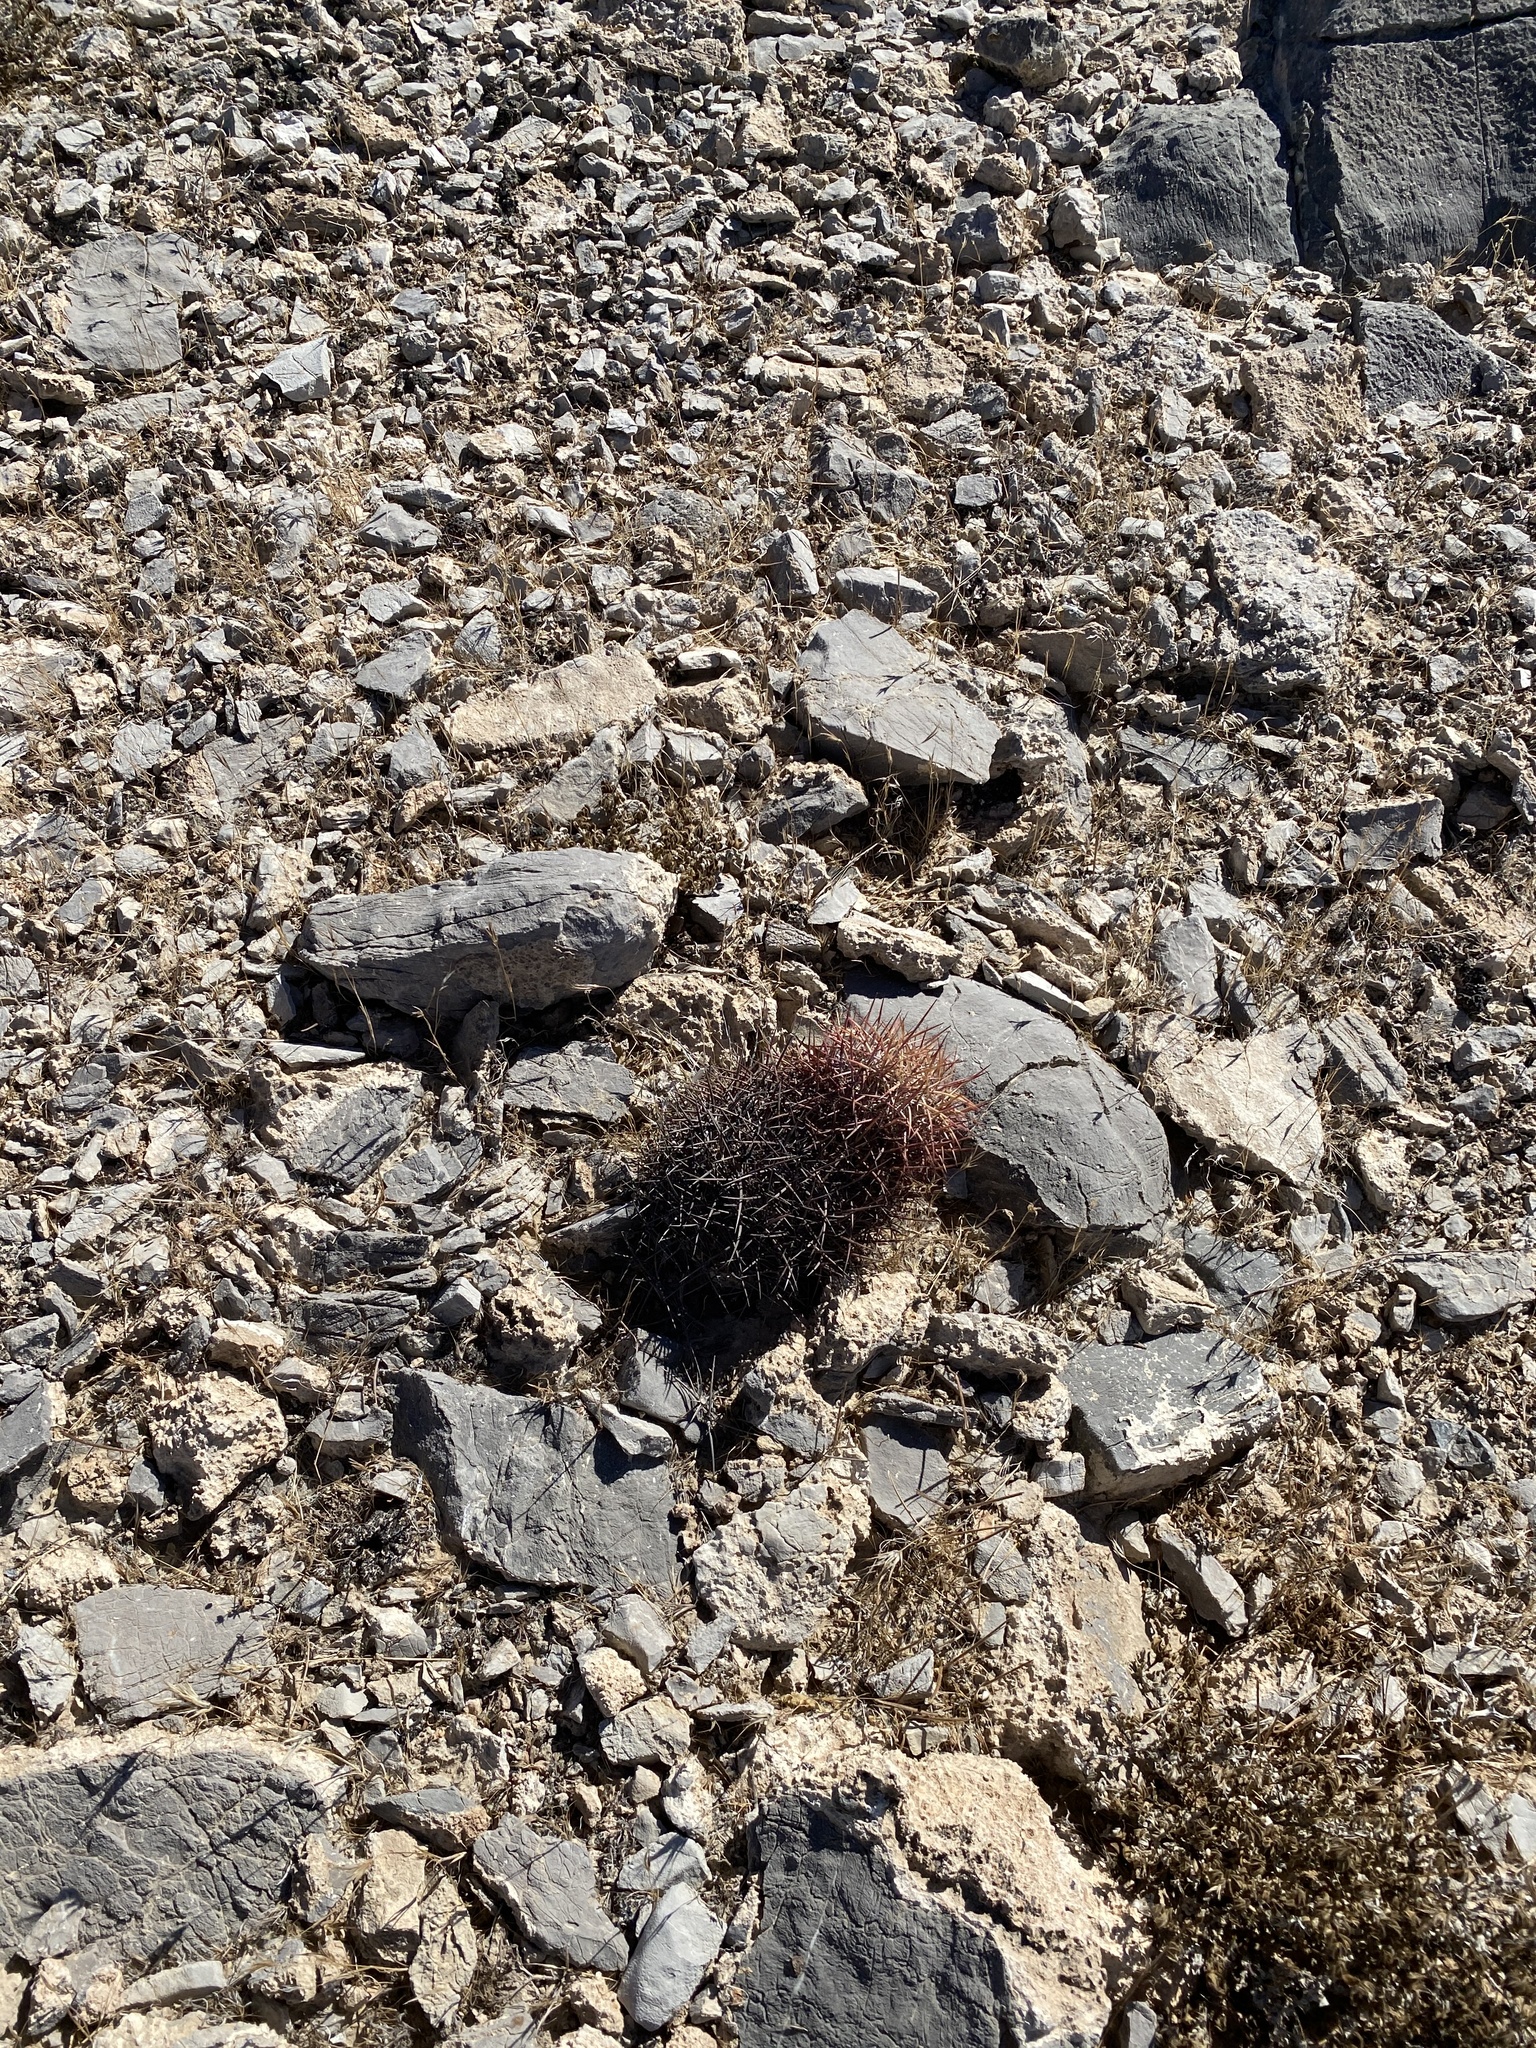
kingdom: Plantae
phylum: Tracheophyta
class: Magnoliopsida
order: Caryophyllales
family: Cactaceae
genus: Sclerocactus
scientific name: Sclerocactus johnsonii
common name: Eight-spine fishhook cactus
